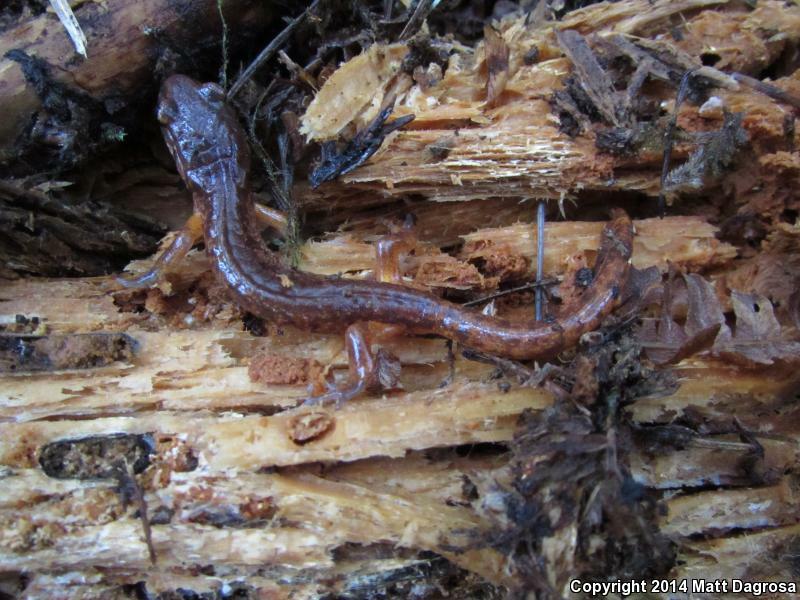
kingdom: Animalia
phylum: Chordata
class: Amphibia
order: Caudata
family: Plethodontidae
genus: Ensatina
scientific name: Ensatina eschscholtzii
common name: Ensatina
